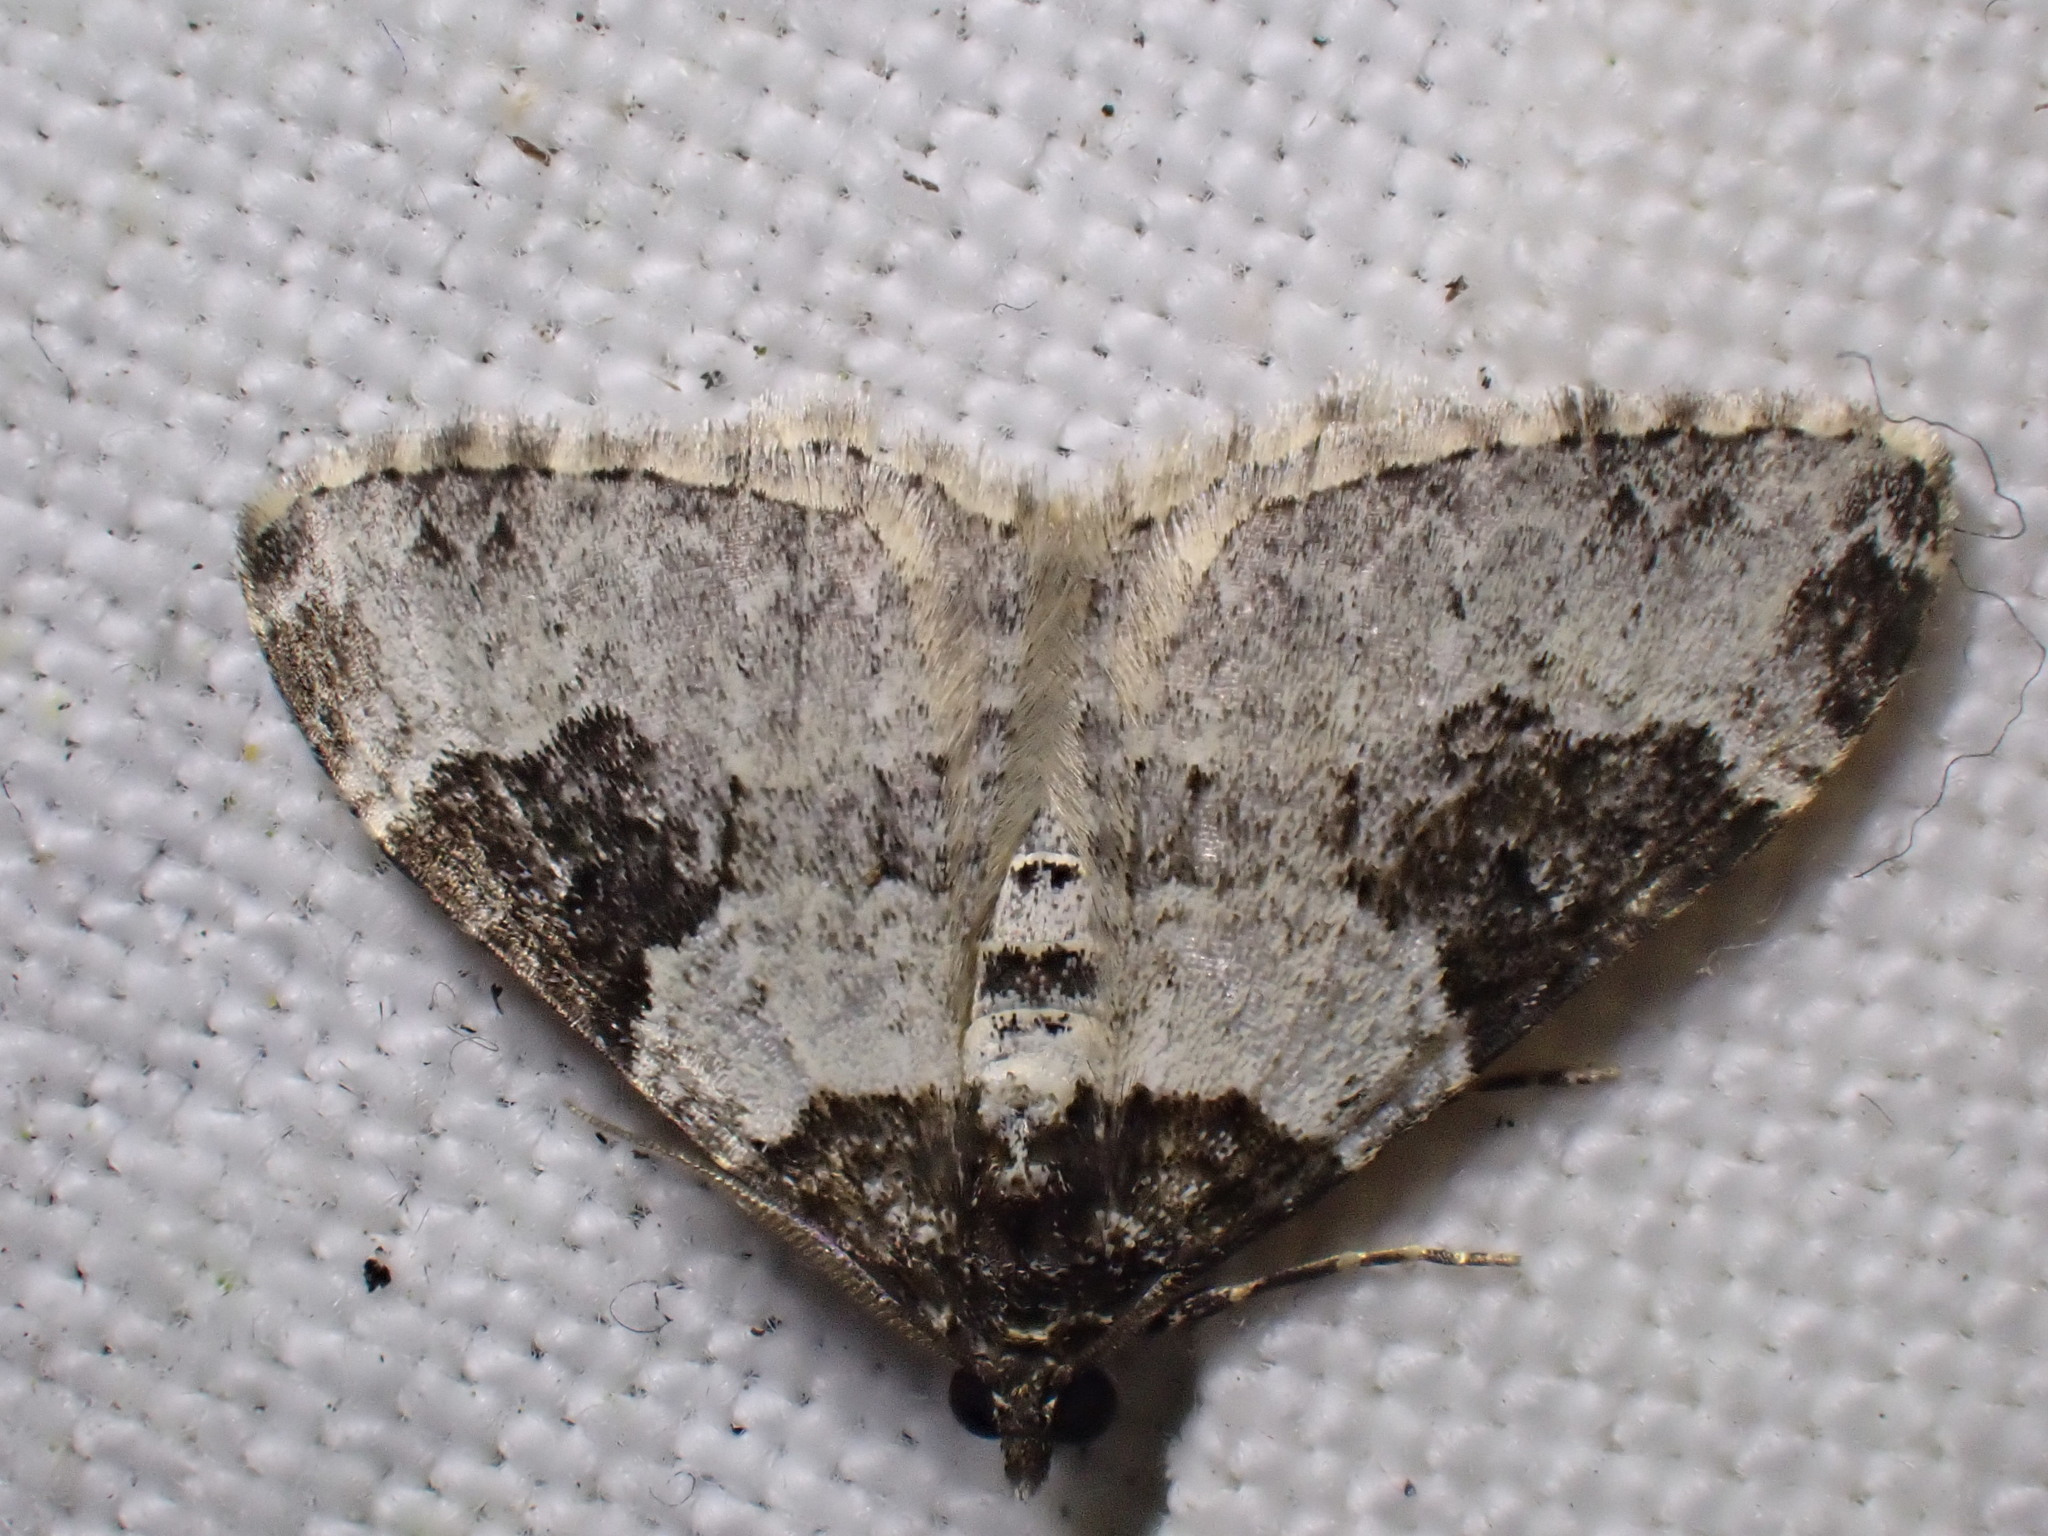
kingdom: Animalia
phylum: Arthropoda
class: Insecta
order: Lepidoptera
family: Geometridae
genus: Xanthorhoe
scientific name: Xanthorhoe fluctuata
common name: Garden carpet
